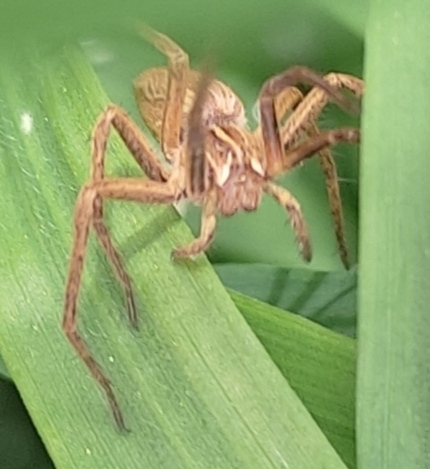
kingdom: Animalia
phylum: Arthropoda
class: Arachnida
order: Araneae
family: Pisauridae
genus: Pisaura
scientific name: Pisaura
